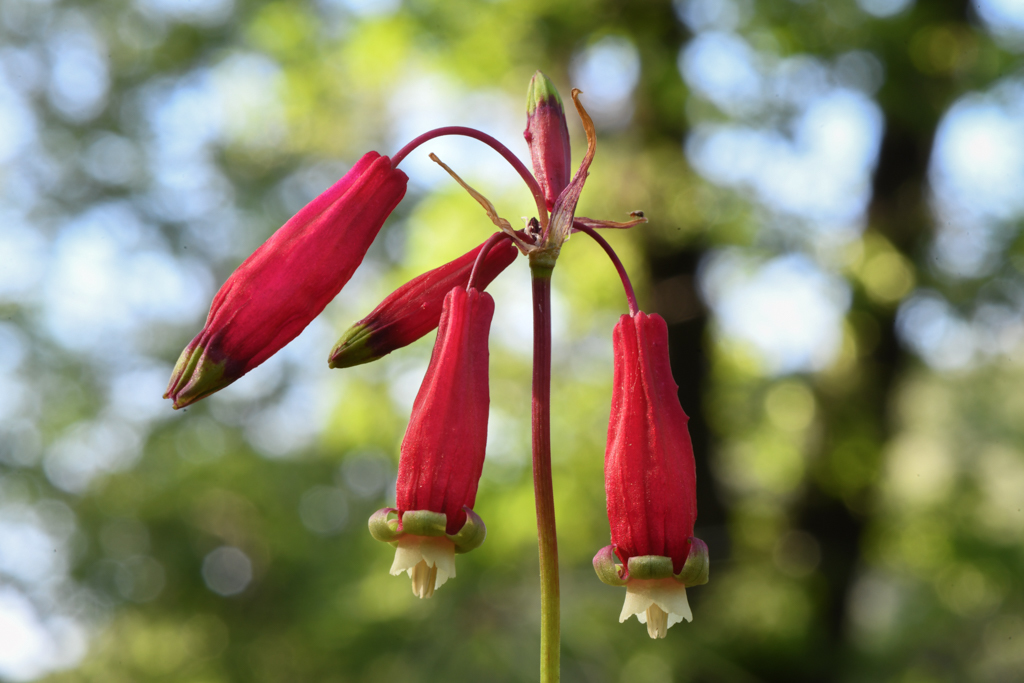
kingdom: Plantae
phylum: Tracheophyta
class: Liliopsida
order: Asparagales
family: Asparagaceae
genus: Dichelostemma
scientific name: Dichelostemma ida-maia
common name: Firecracker-flower
